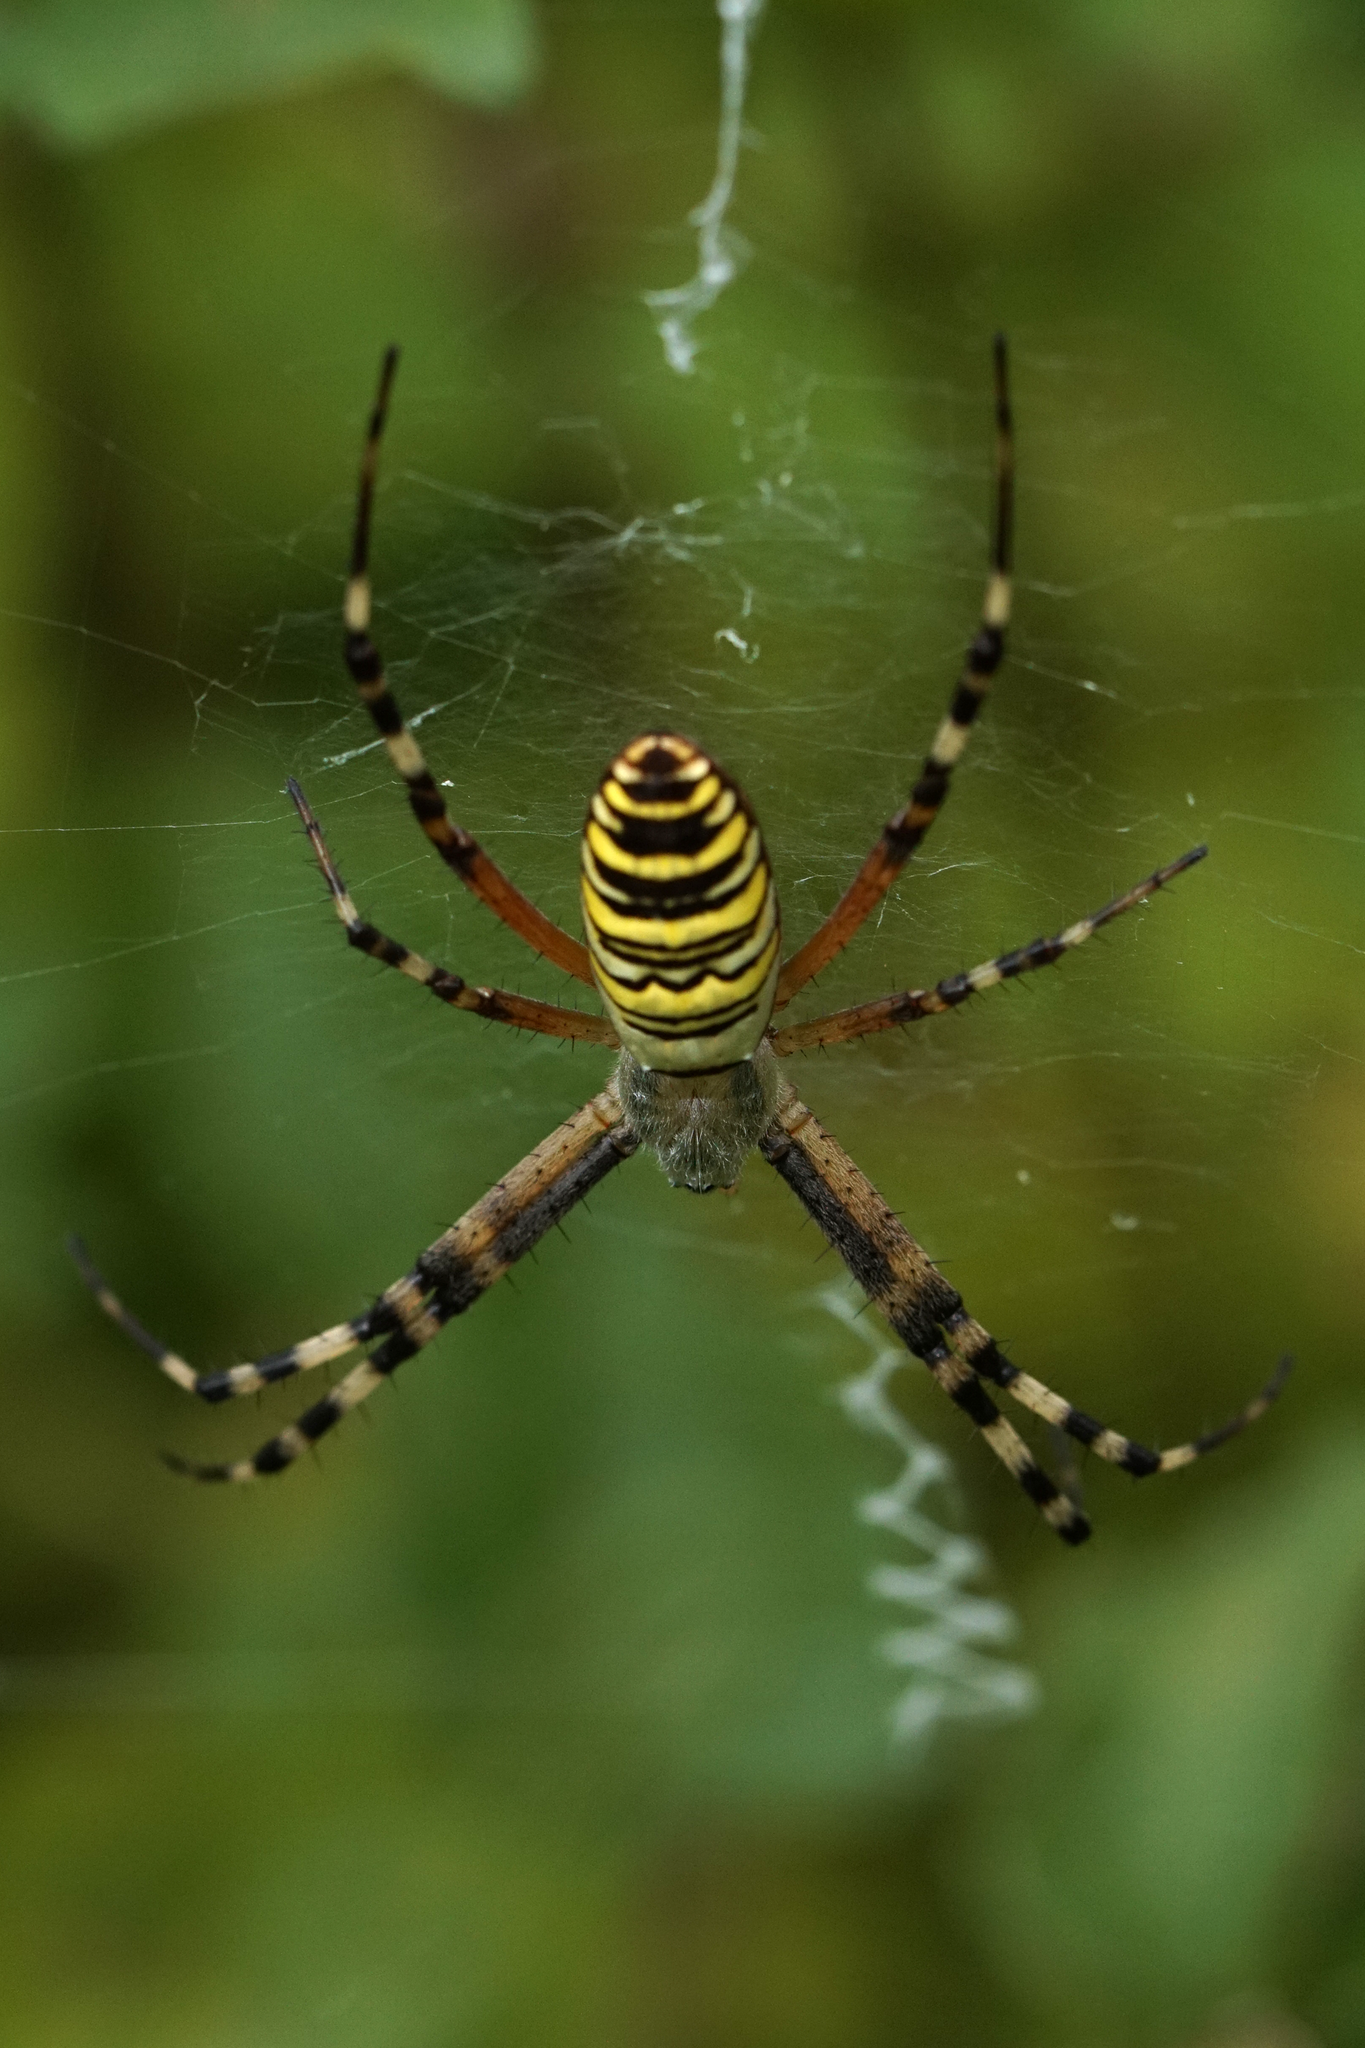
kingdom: Animalia
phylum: Arthropoda
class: Arachnida
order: Araneae
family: Araneidae
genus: Argiope
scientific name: Argiope bruennichi
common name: Wasp spider
